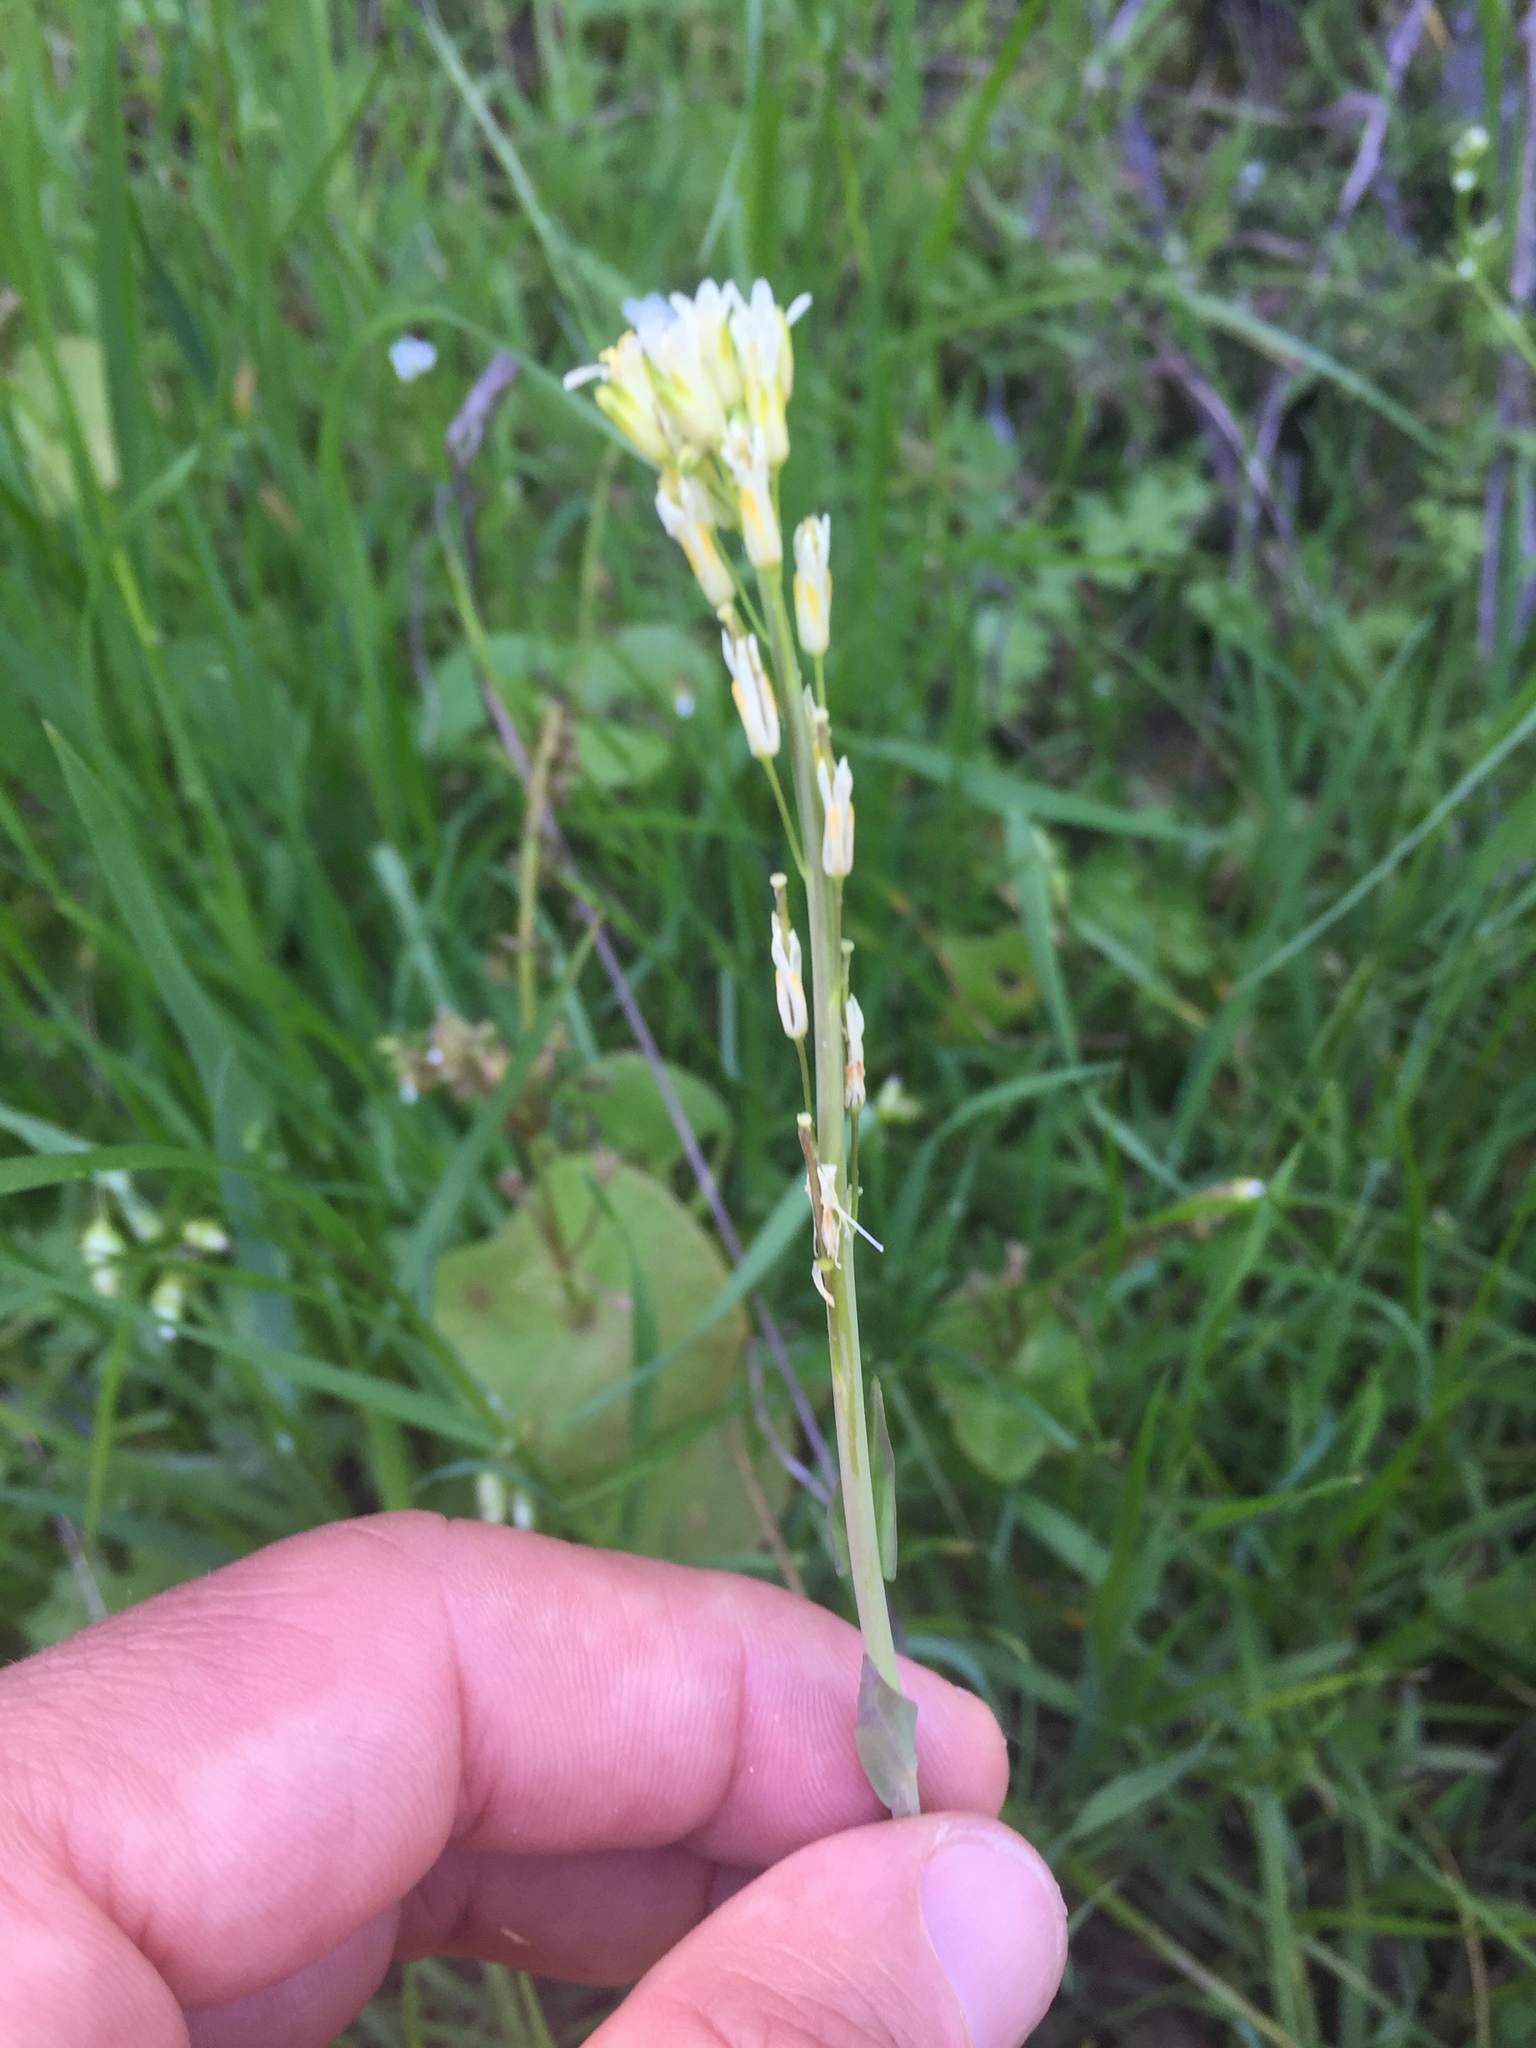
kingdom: Plantae
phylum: Tracheophyta
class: Magnoliopsida
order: Brassicales
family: Brassicaceae
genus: Turritis
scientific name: Turritis glabra
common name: Tower rockcress
